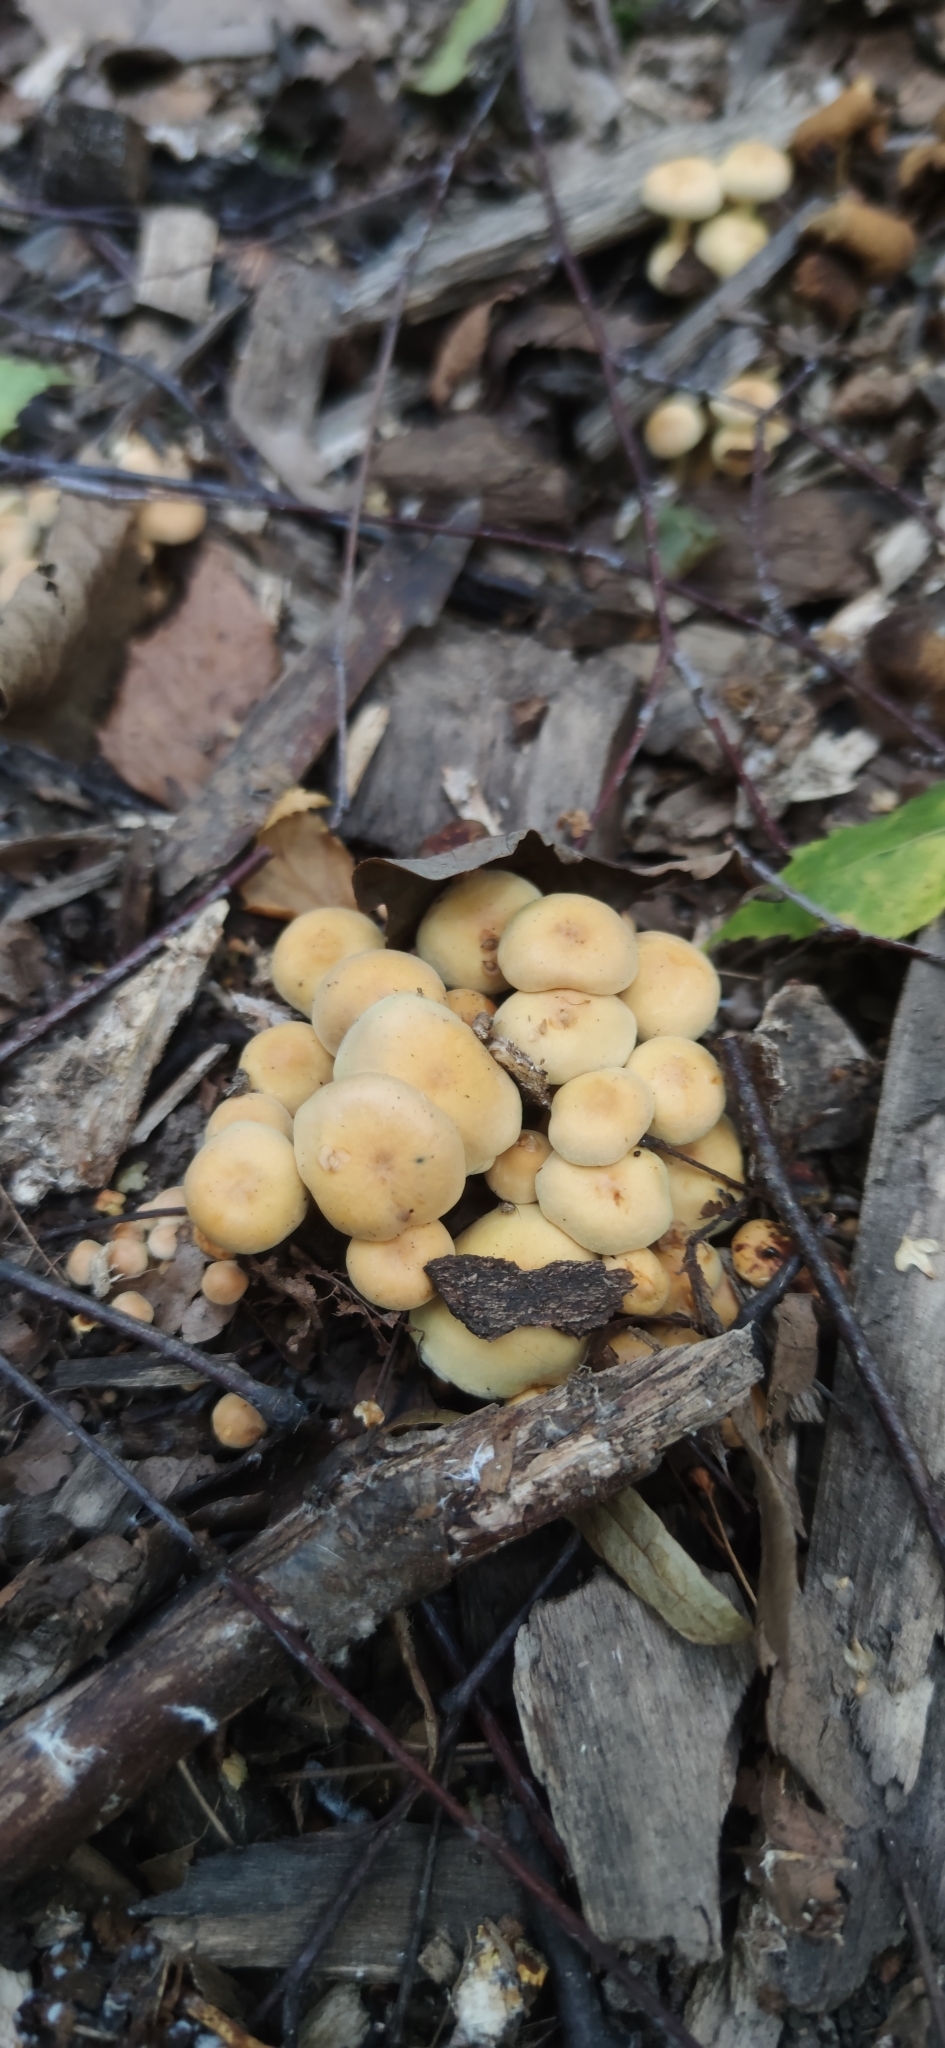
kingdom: Fungi
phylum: Basidiomycota
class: Agaricomycetes
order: Agaricales
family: Strophariaceae
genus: Hypholoma
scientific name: Hypholoma fasciculare
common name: Sulphur tuft
